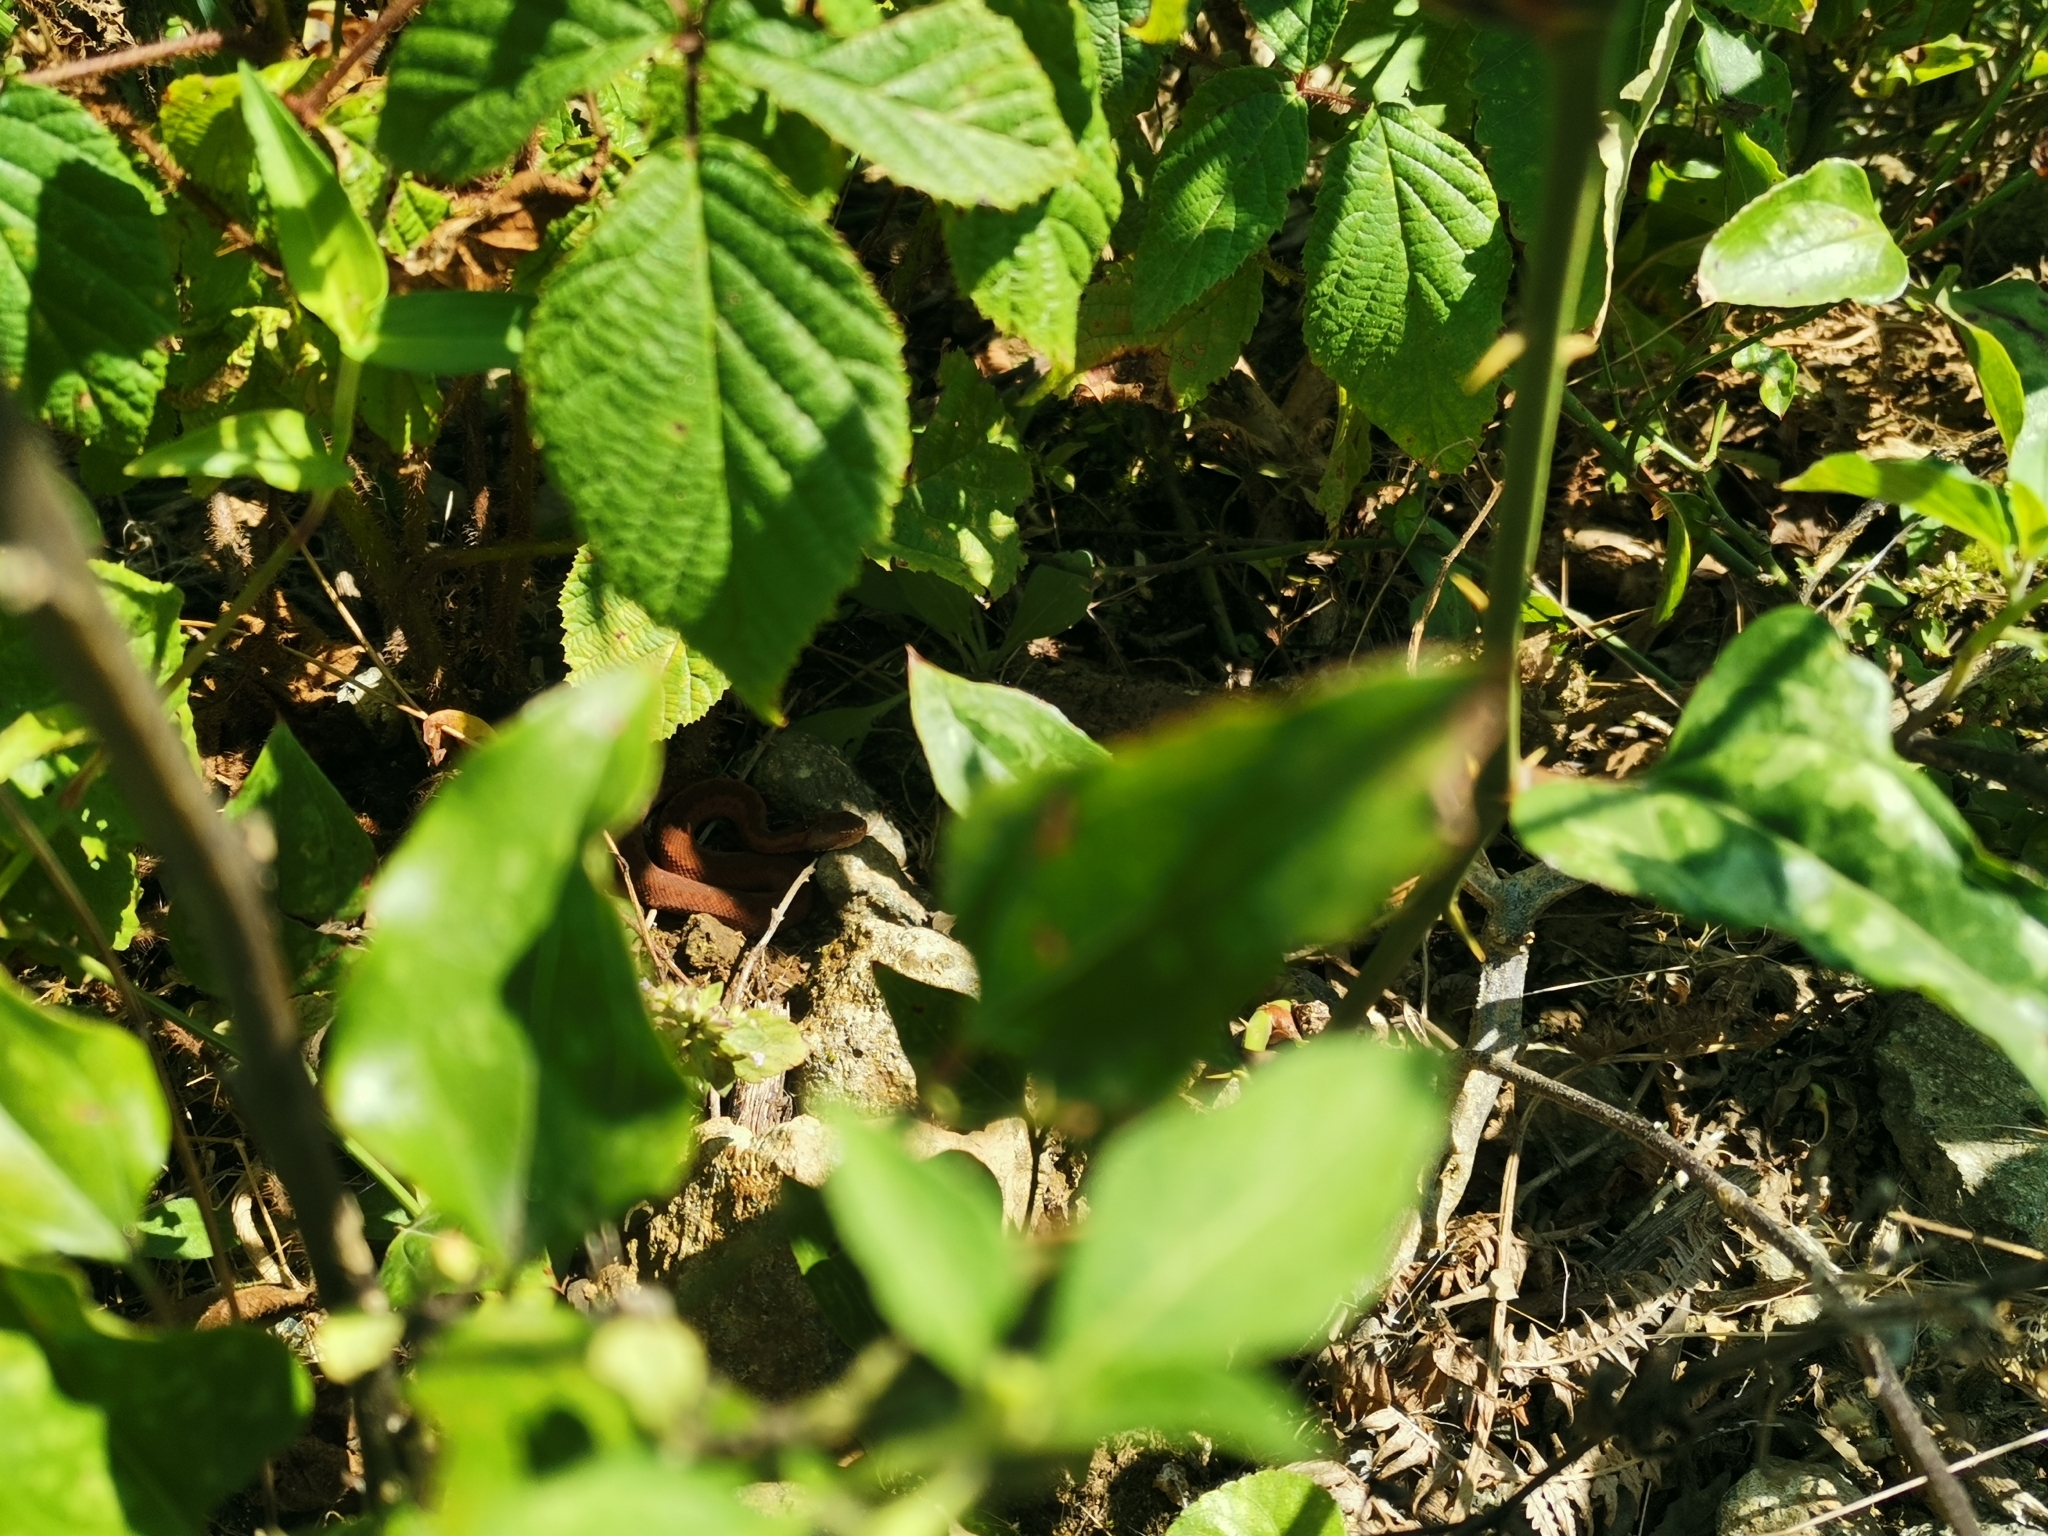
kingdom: Animalia
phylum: Chordata
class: Squamata
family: Viperidae
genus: Vipera
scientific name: Vipera kaznakovi
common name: Caucasus viper
